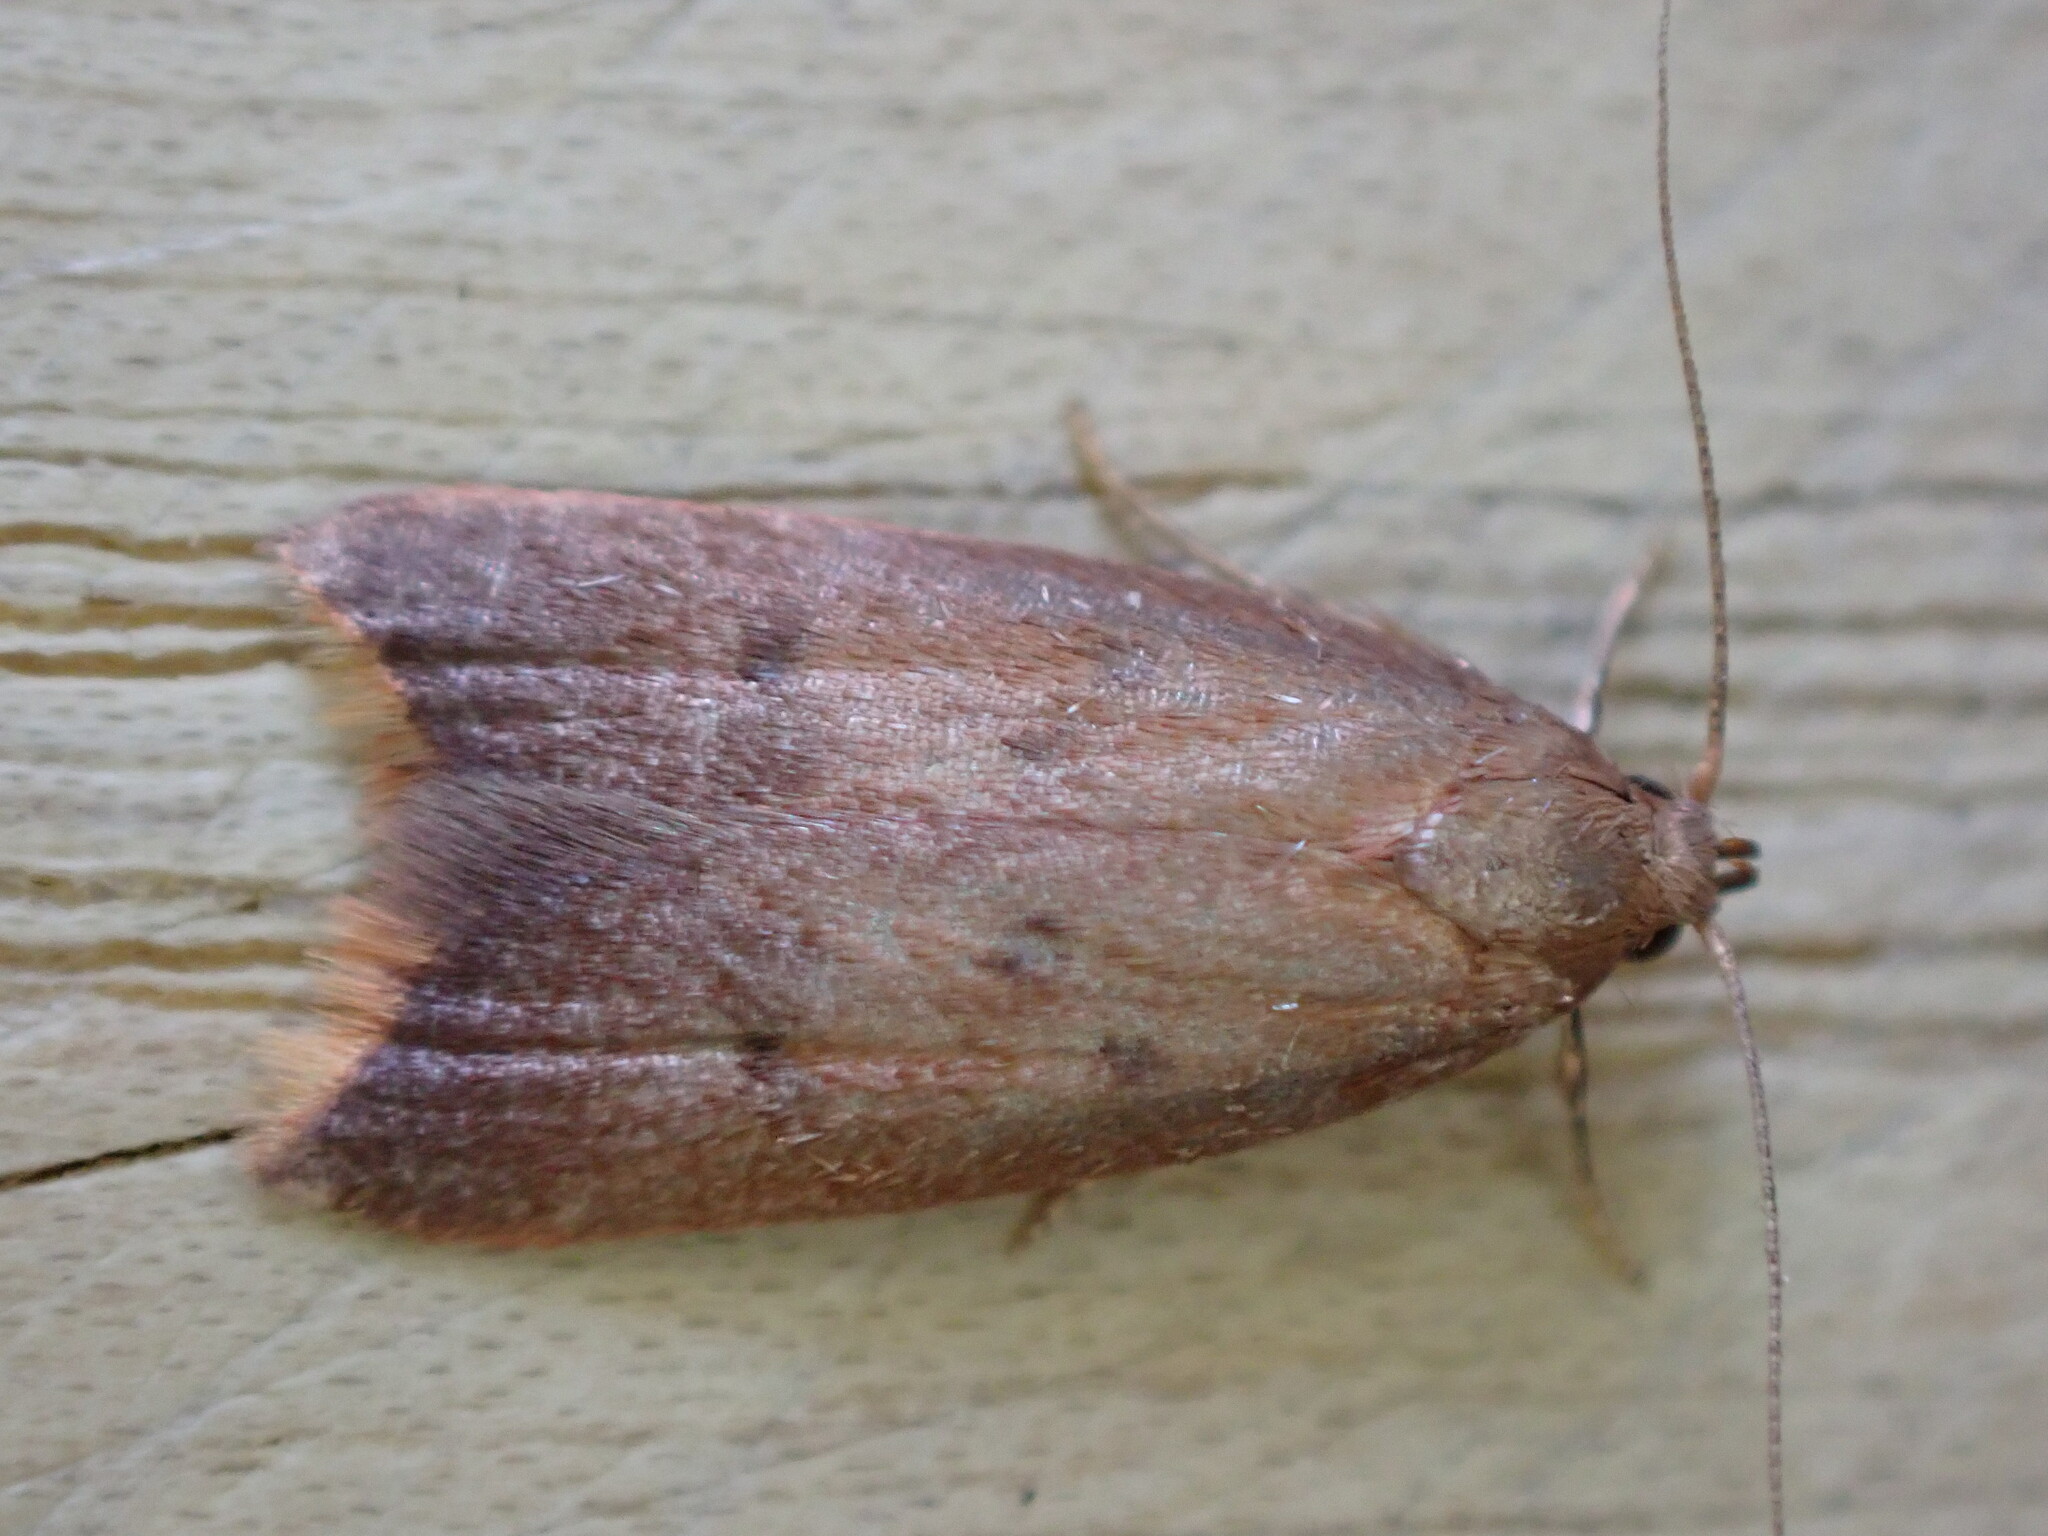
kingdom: Animalia
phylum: Arthropoda
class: Insecta
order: Lepidoptera
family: Oecophoridae
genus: Tachystola
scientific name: Tachystola acroxantha
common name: Ruddy streak
